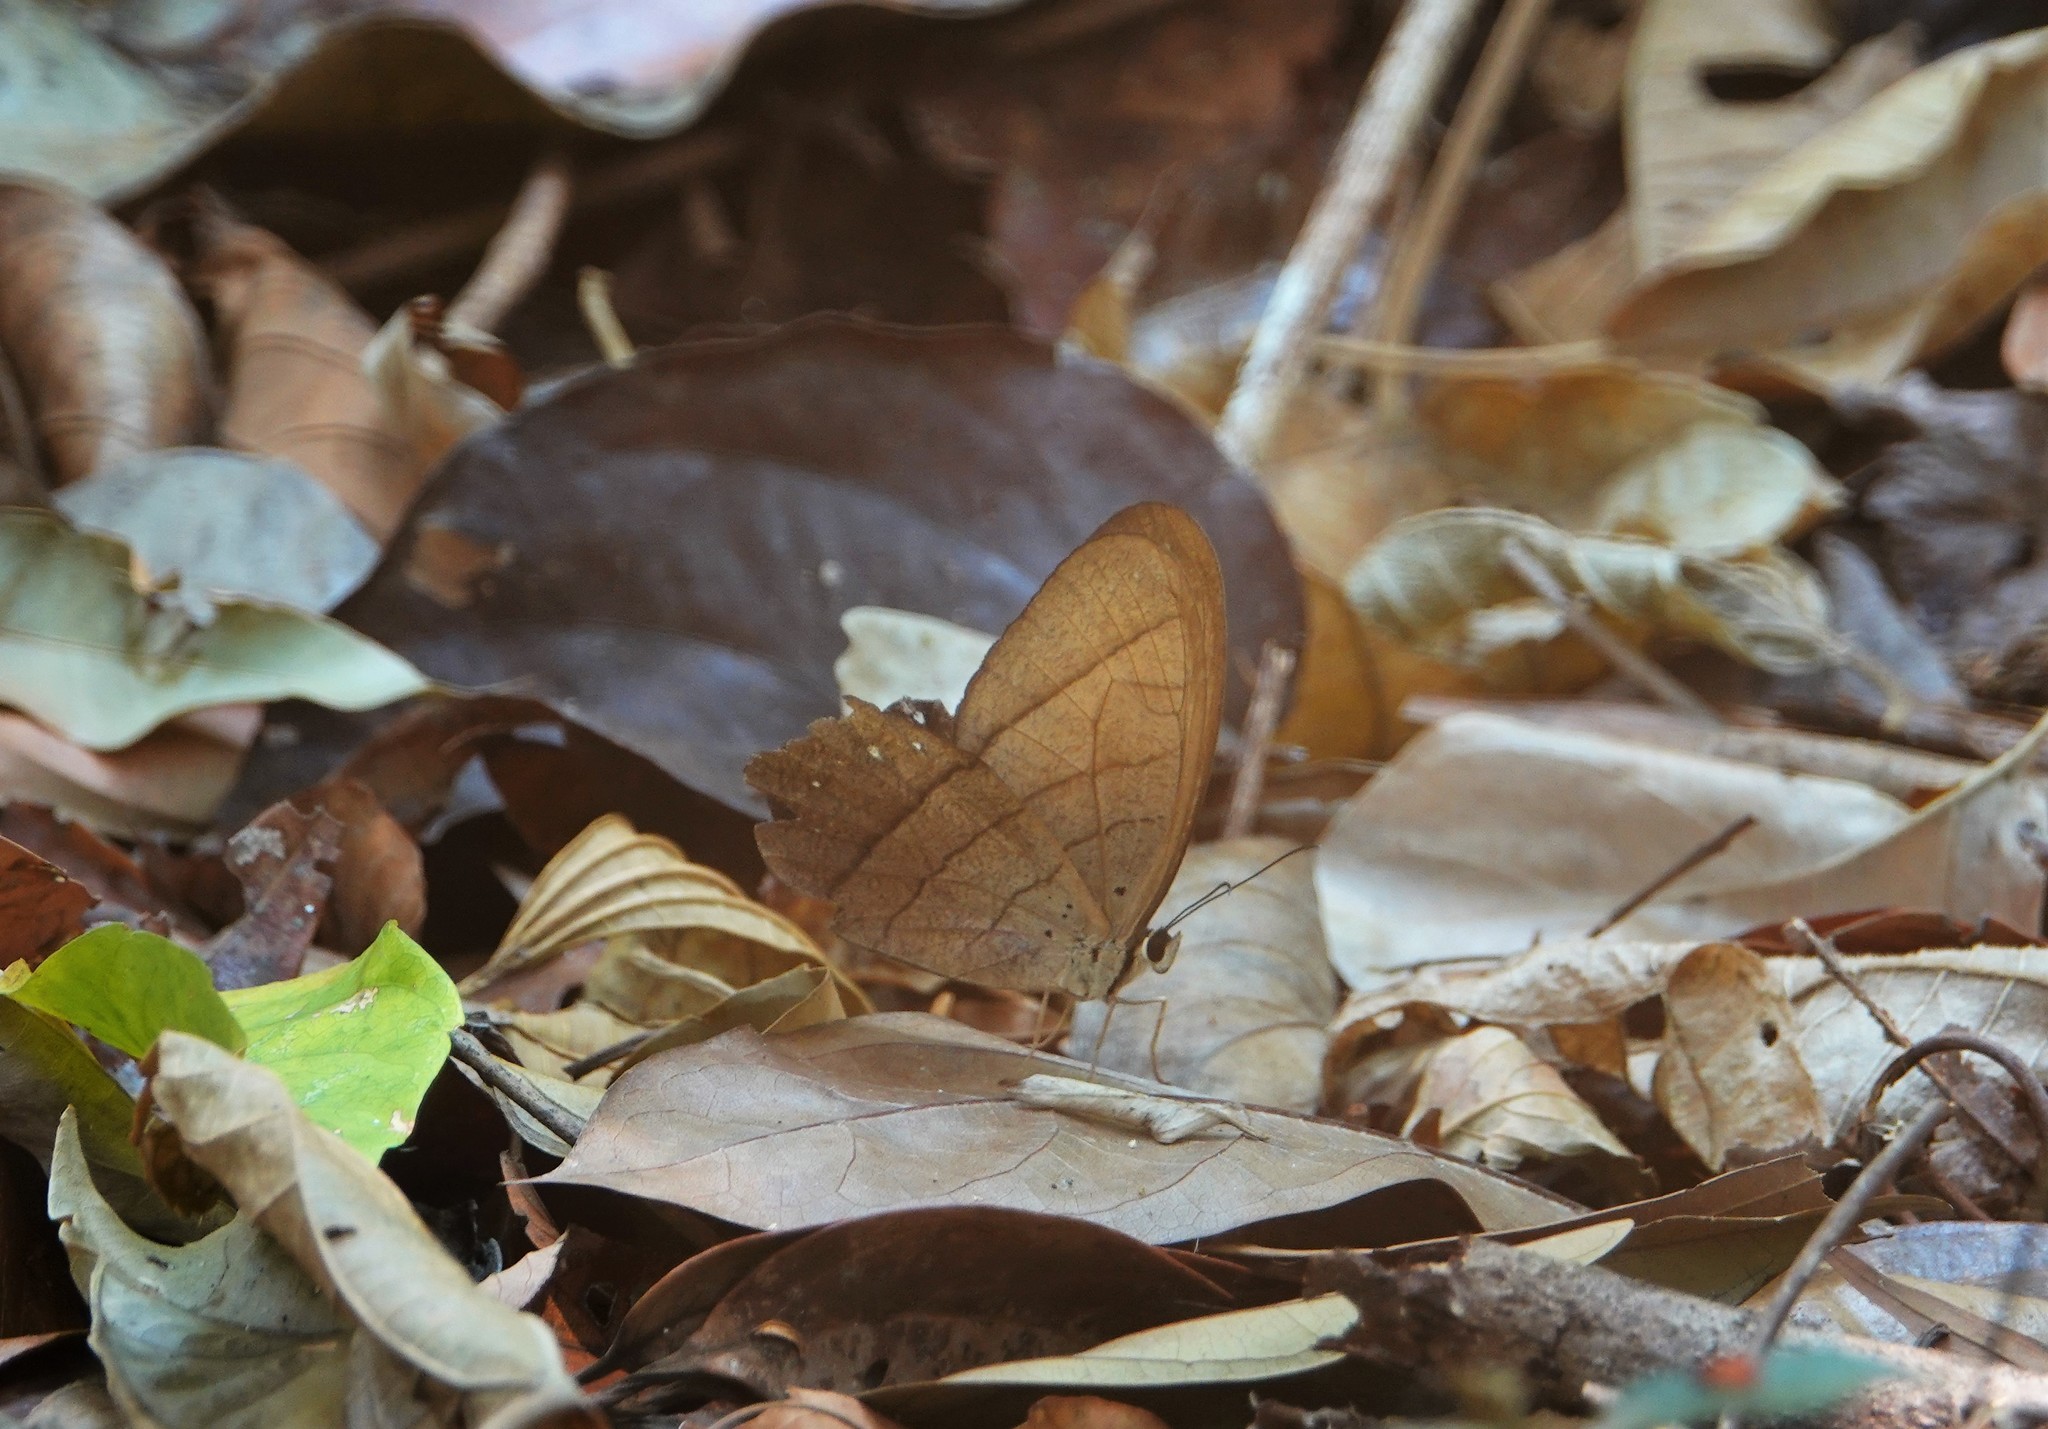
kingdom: Animalia
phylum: Arthropoda
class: Insecta
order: Lepidoptera
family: Nymphalidae
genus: Pierella
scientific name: Pierella rhea
